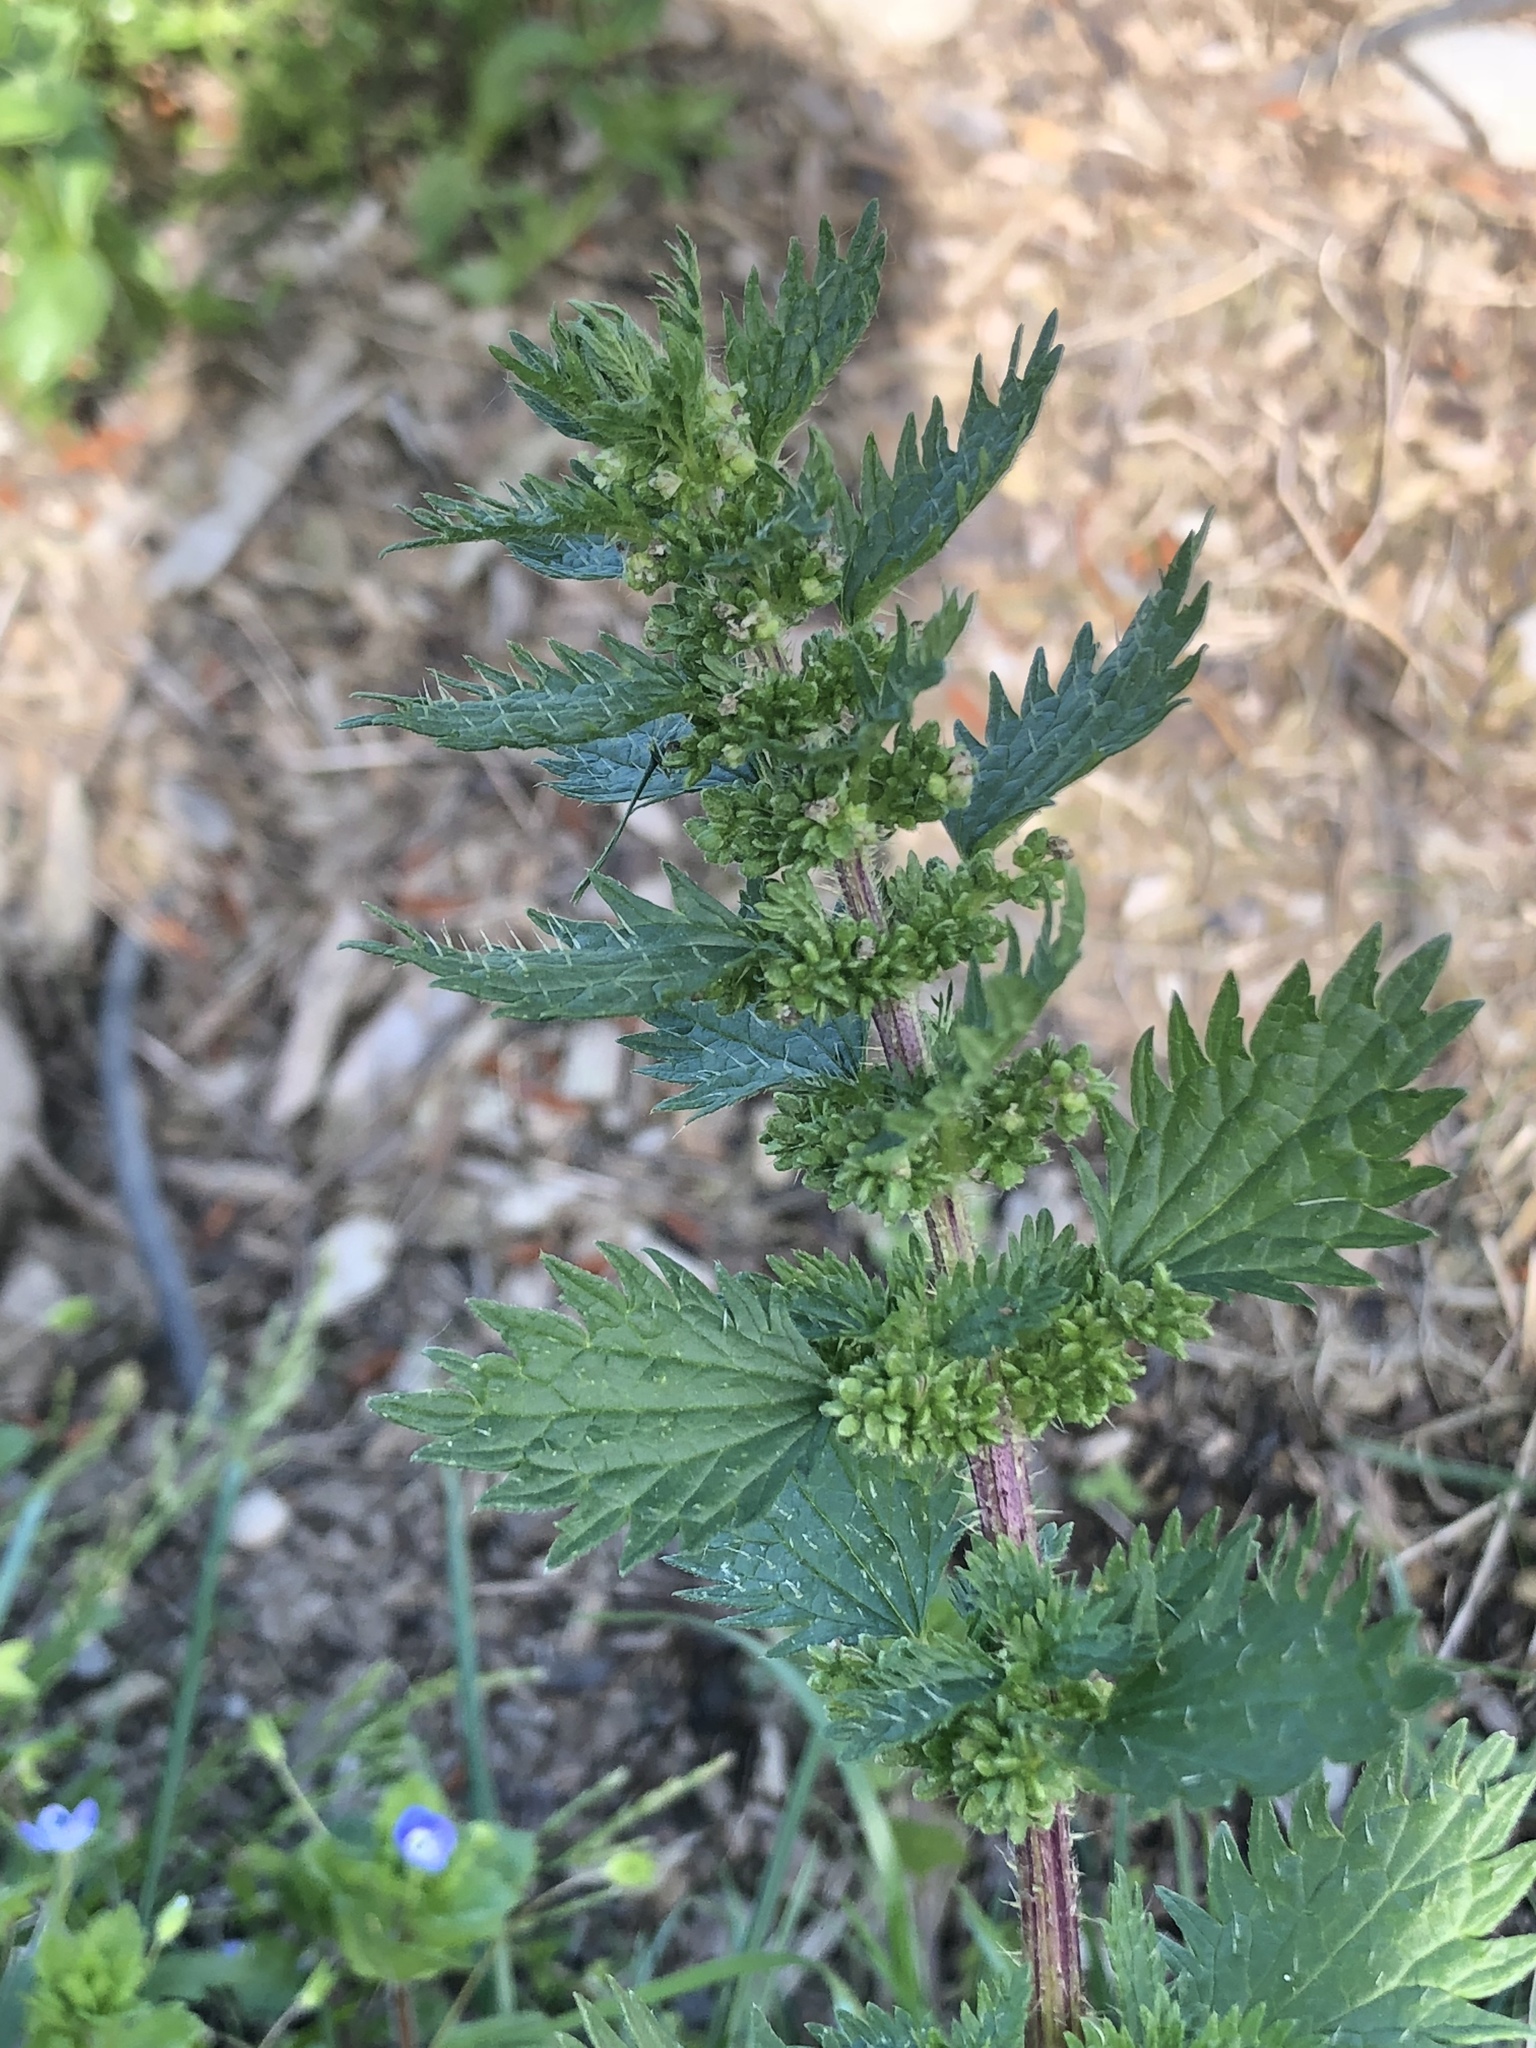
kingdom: Plantae
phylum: Tracheophyta
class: Magnoliopsida
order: Rosales
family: Urticaceae
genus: Urtica
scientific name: Urtica urens
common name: Dwarf nettle
